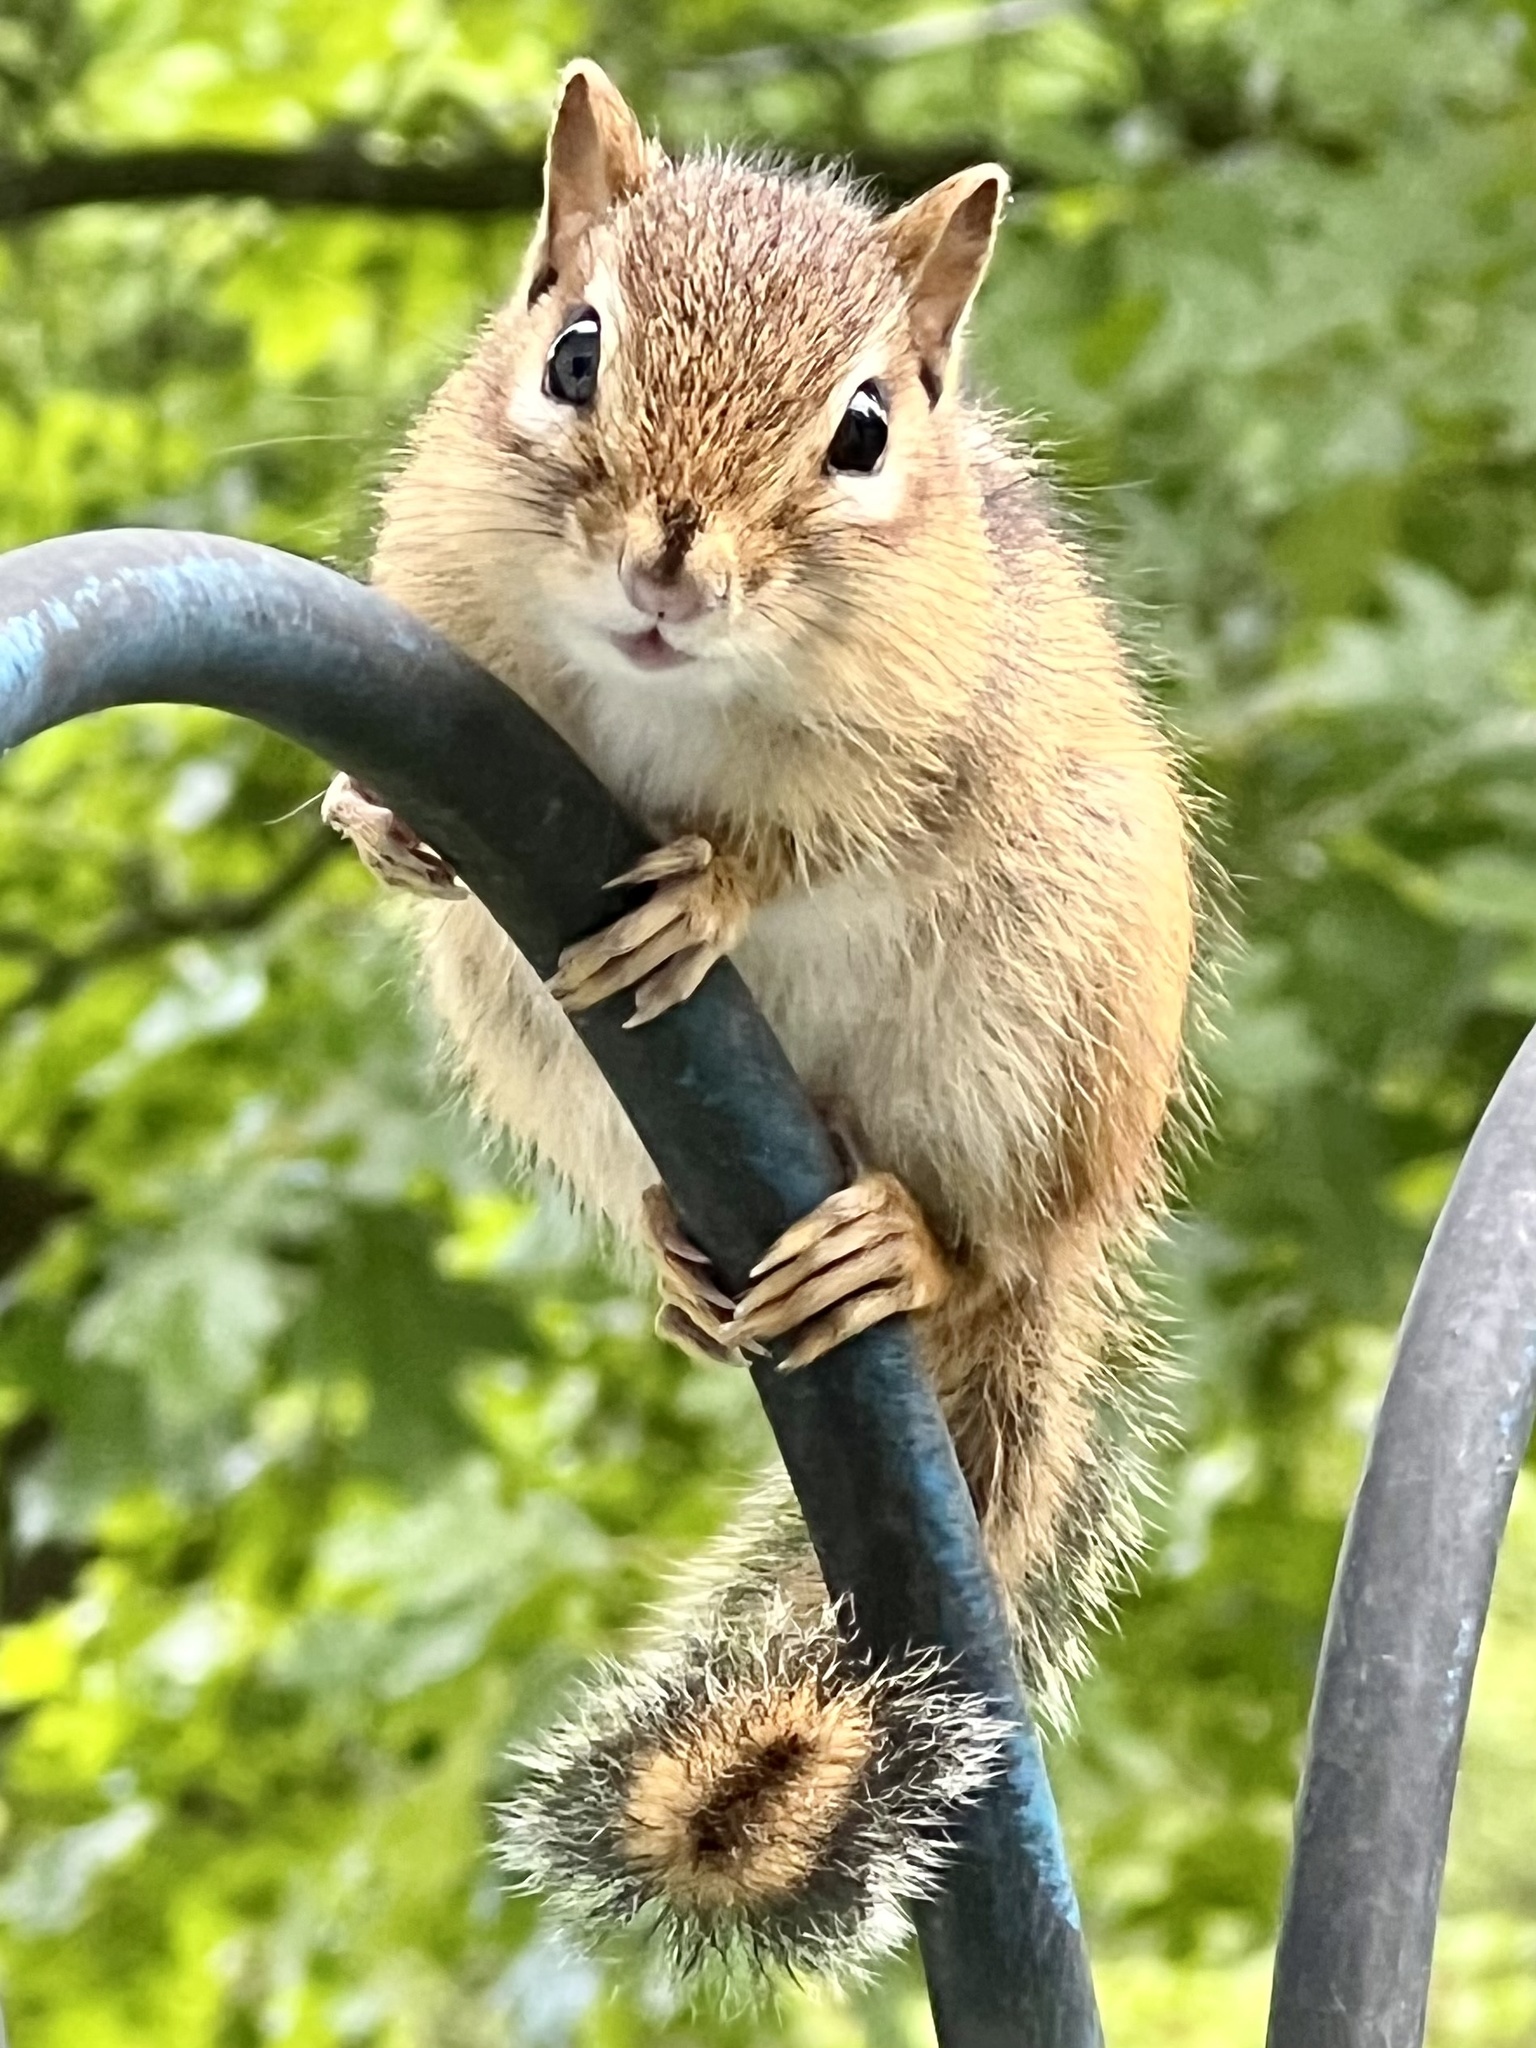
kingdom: Animalia
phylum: Chordata
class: Mammalia
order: Rodentia
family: Sciuridae
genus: Tamias
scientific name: Tamias striatus
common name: Eastern chipmunk
